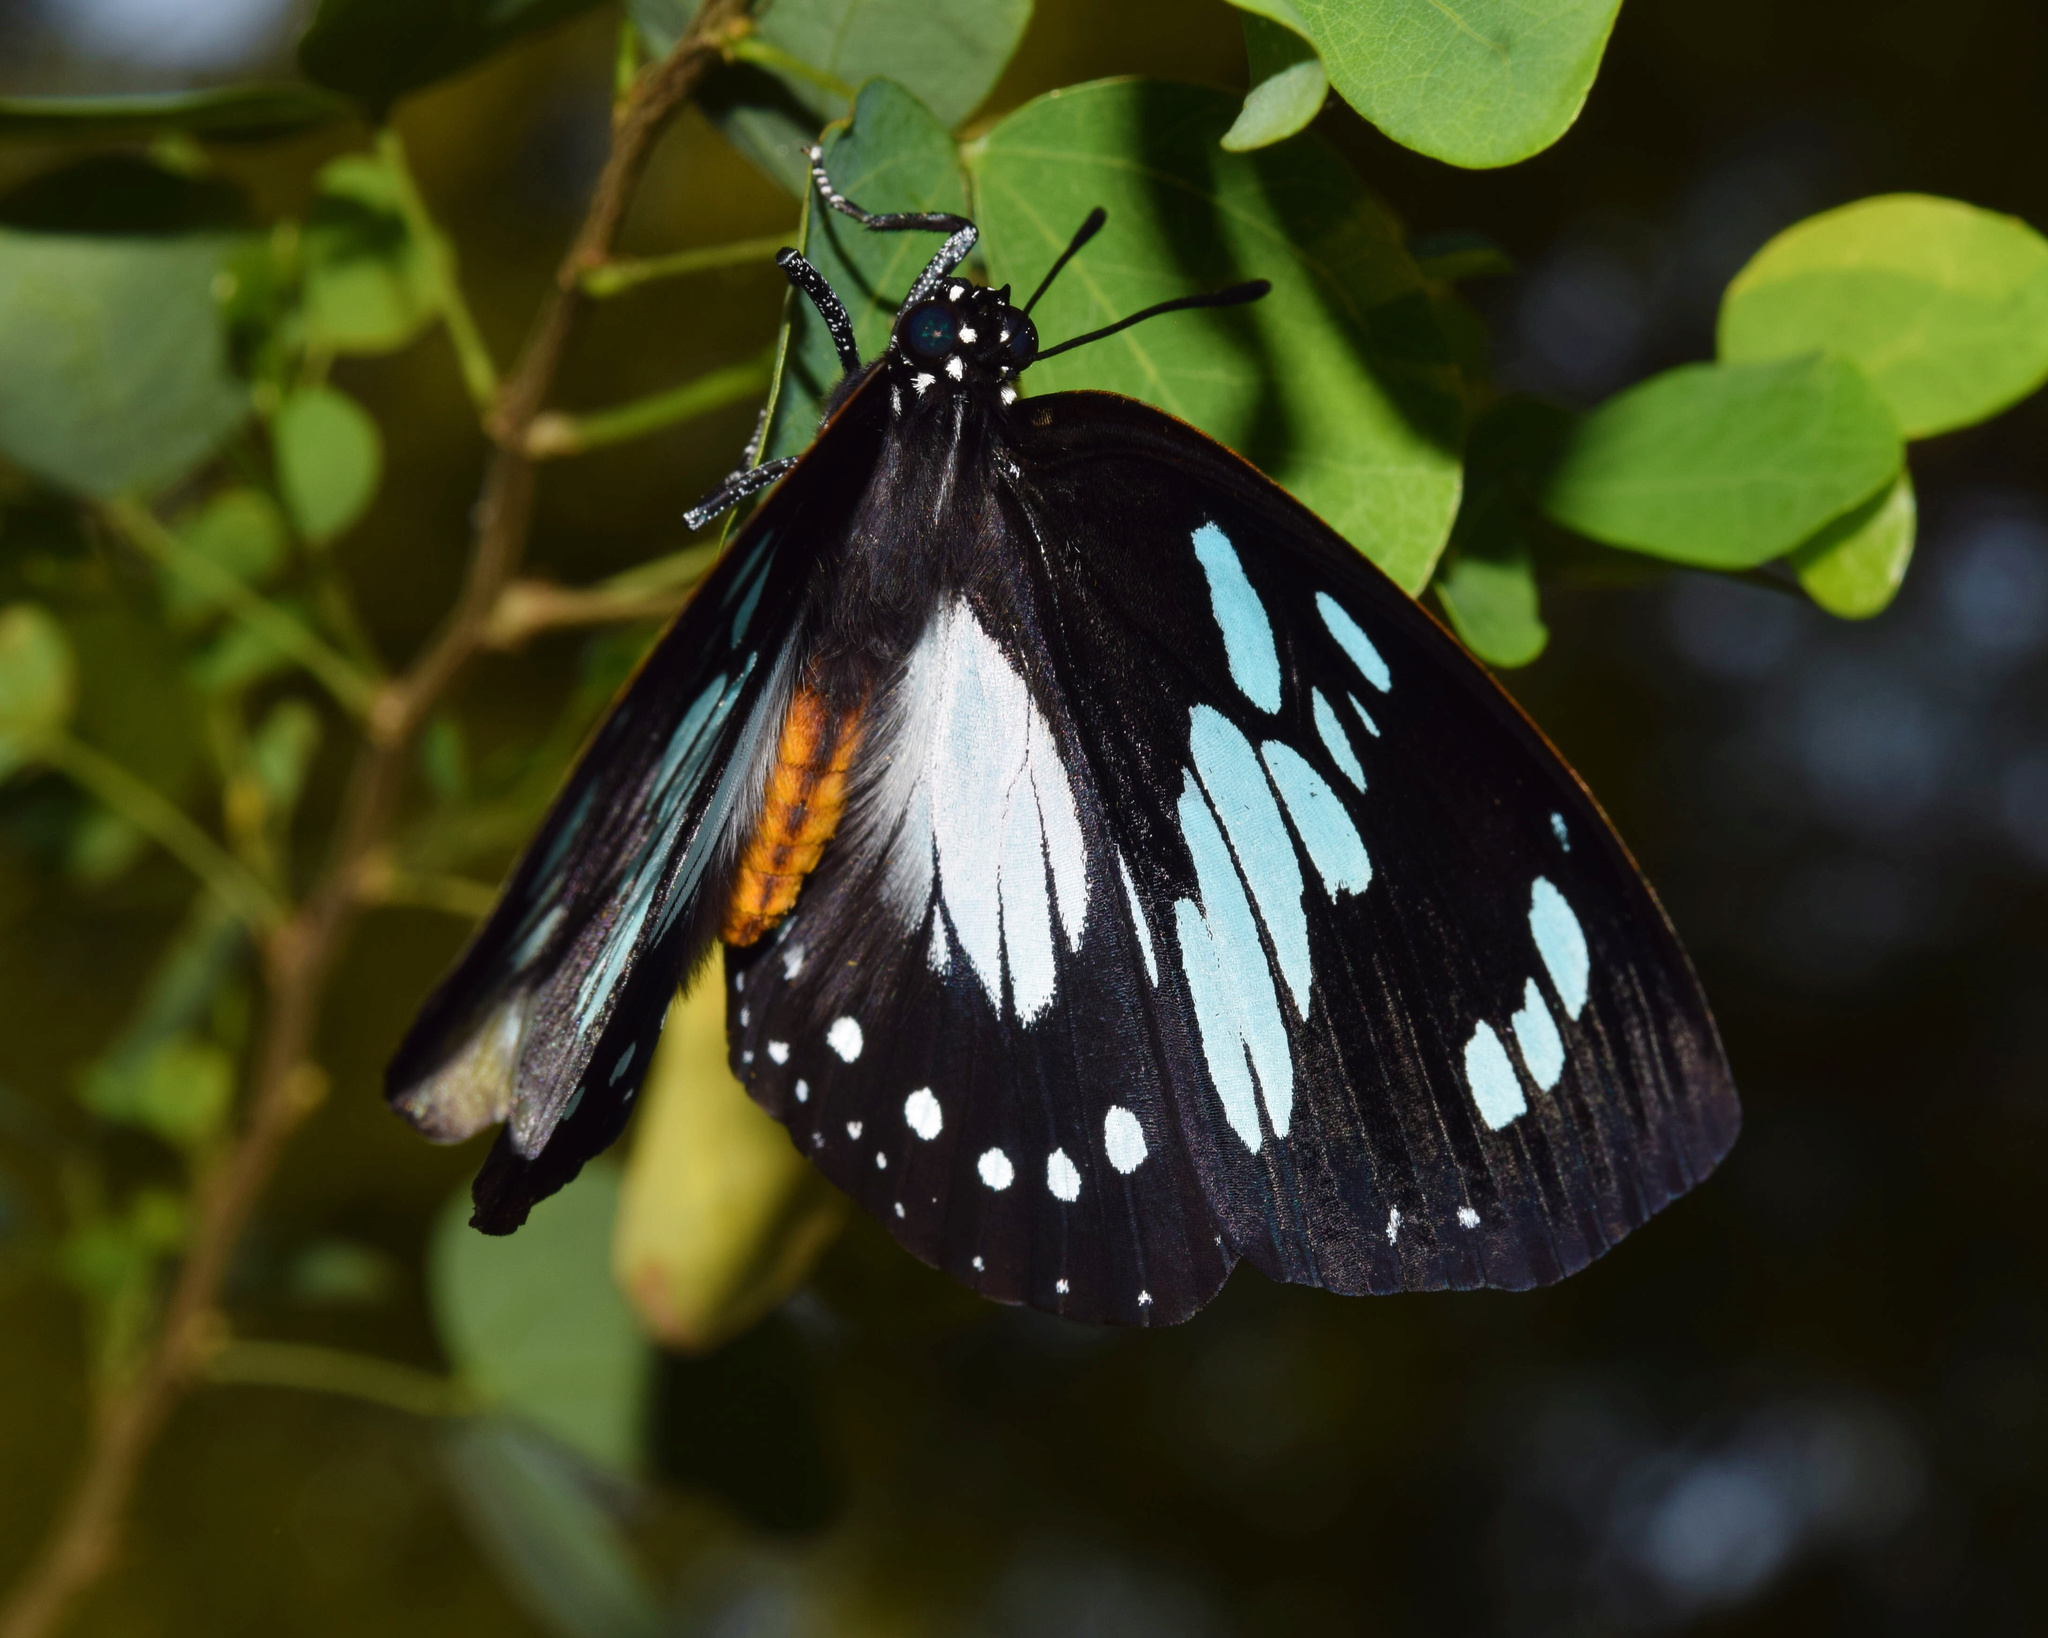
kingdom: Animalia
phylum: Arthropoda
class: Insecta
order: Lepidoptera
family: Nymphalidae
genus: Charaxes
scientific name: Charaxes wakefieldi
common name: Forest queen
